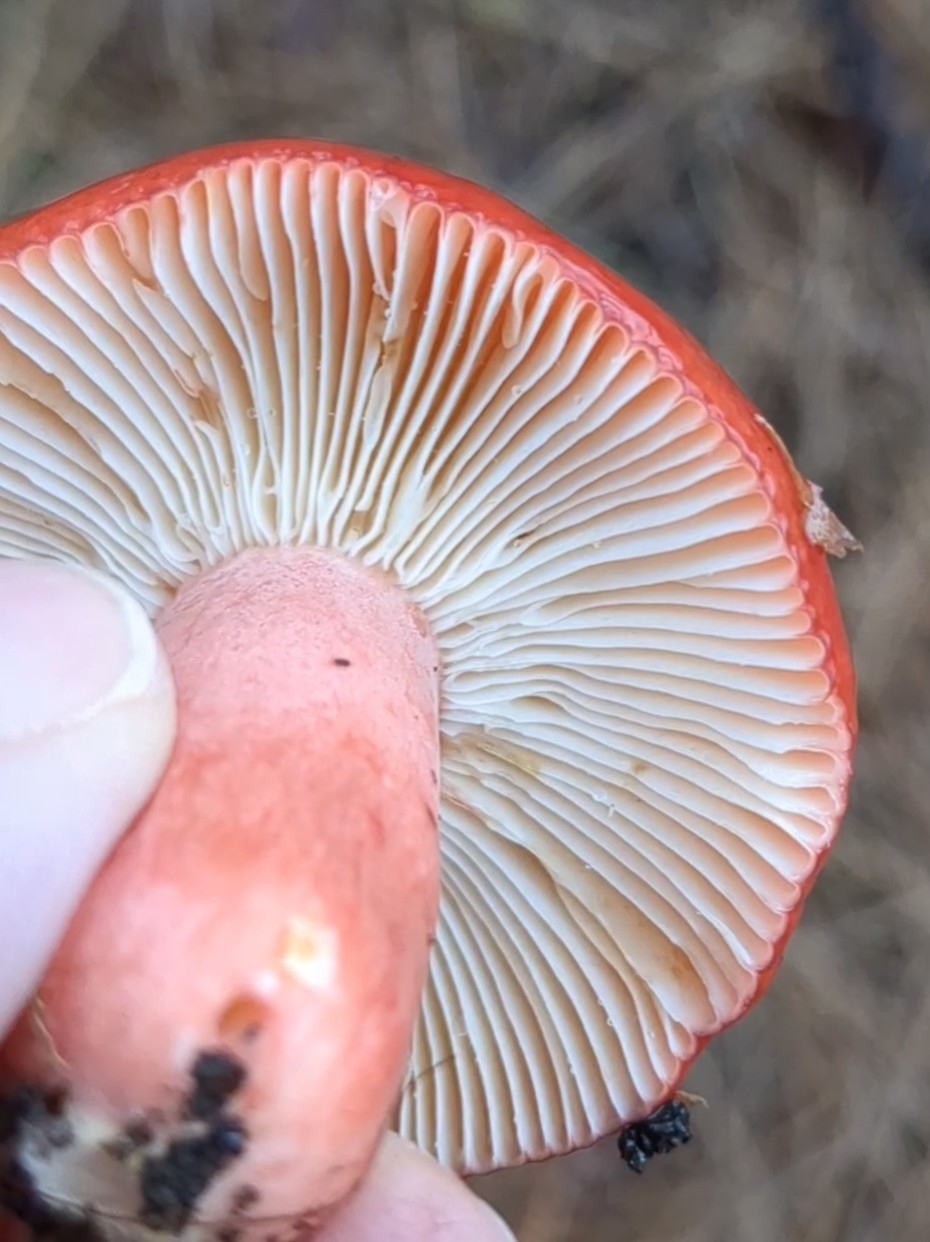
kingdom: Fungi
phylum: Basidiomycota
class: Agaricomycetes
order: Russulales
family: Russulaceae
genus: Russula
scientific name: Russula rhodocephala
